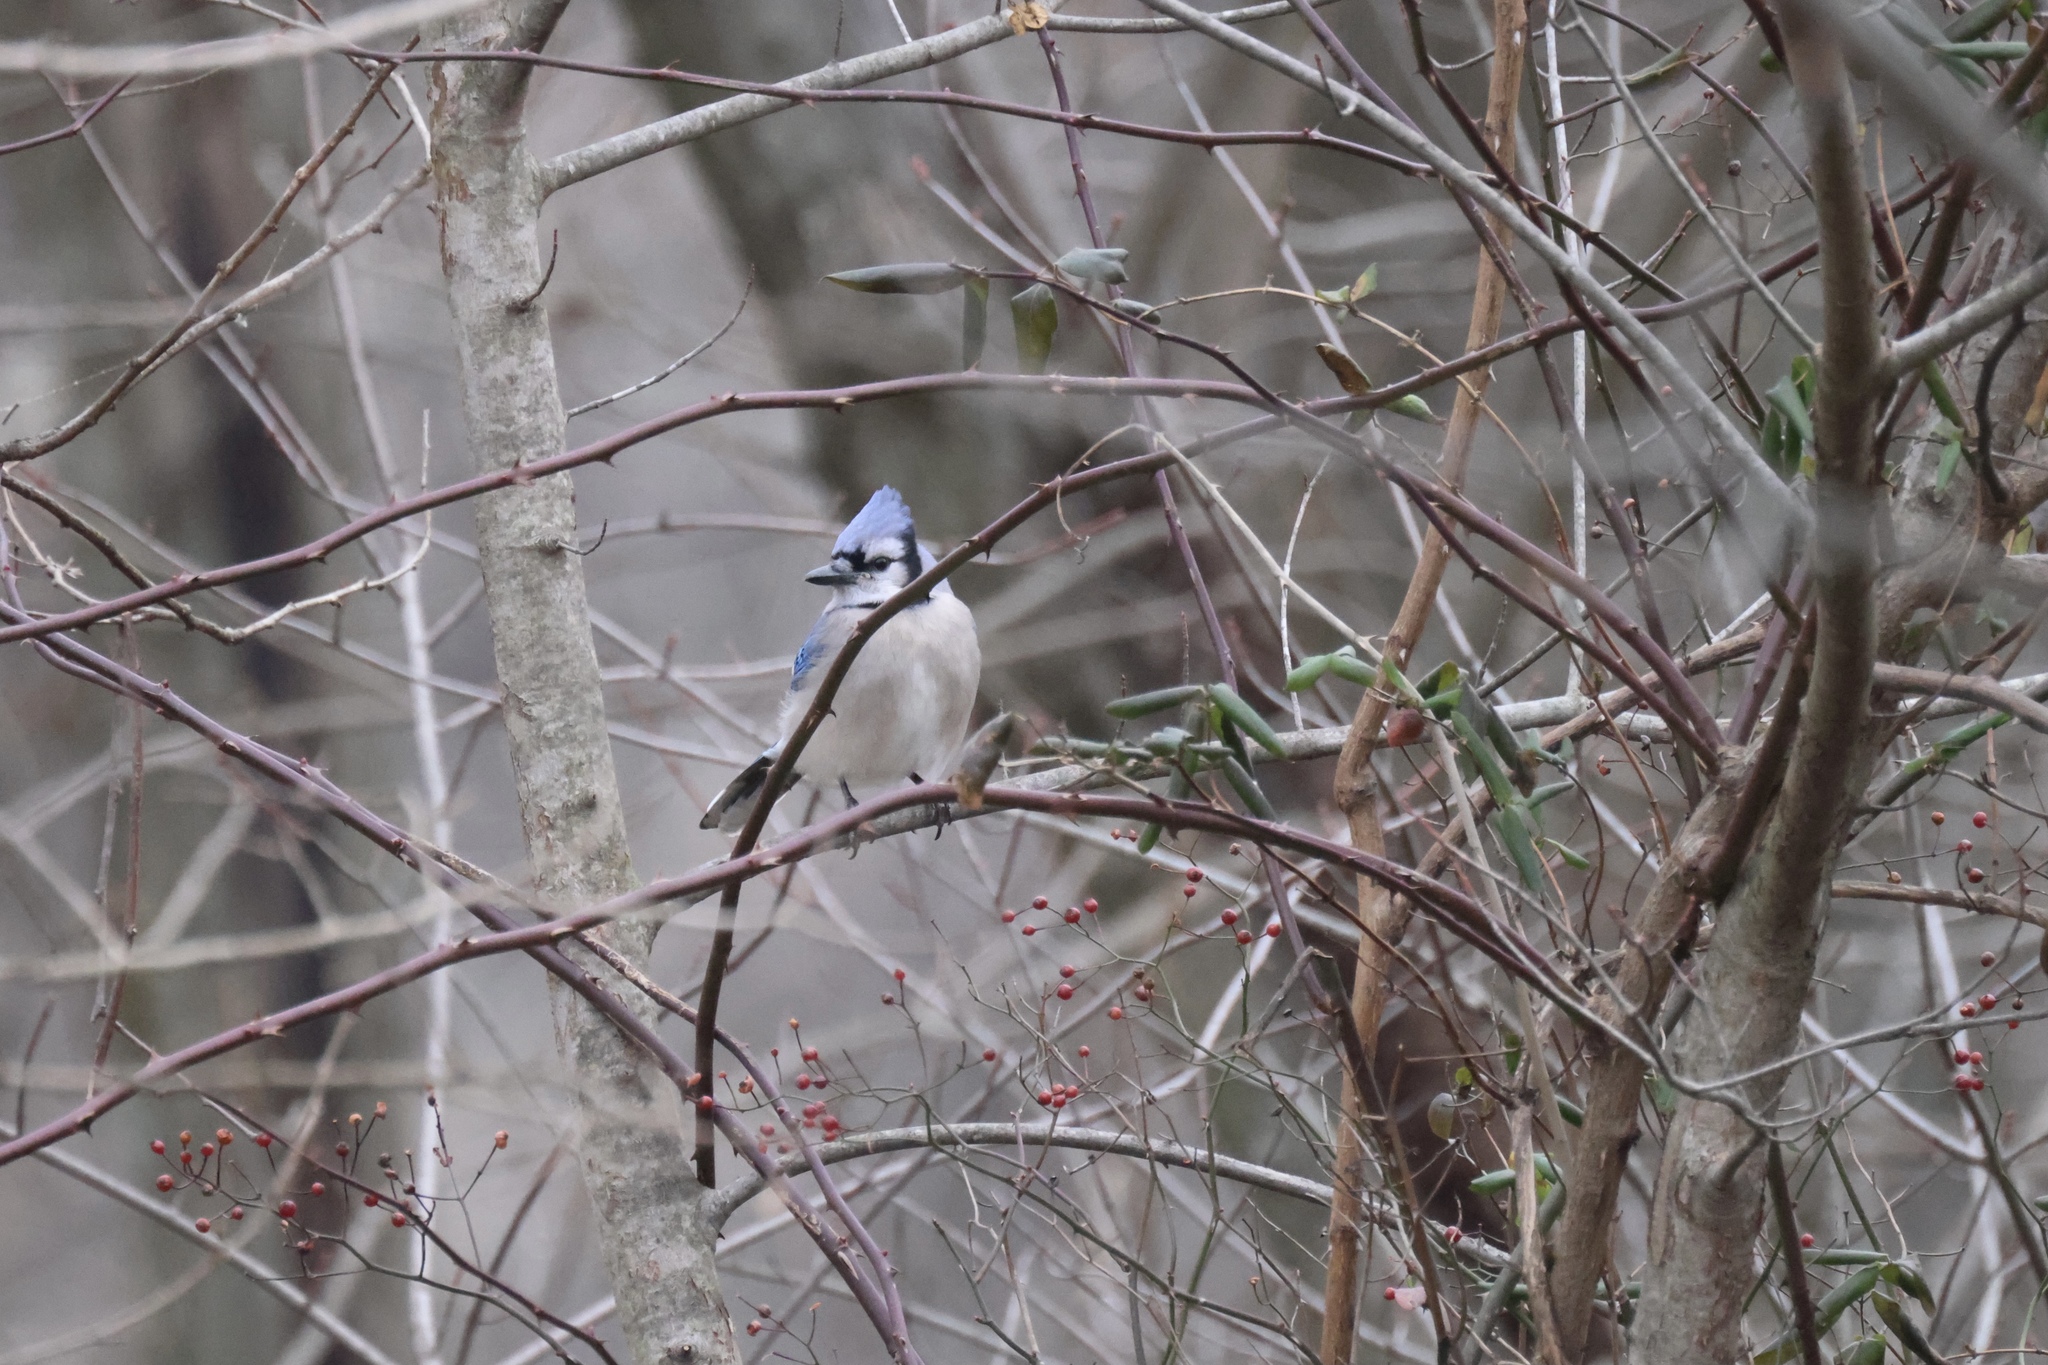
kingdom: Animalia
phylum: Chordata
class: Aves
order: Passeriformes
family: Corvidae
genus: Cyanocitta
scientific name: Cyanocitta cristata
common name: Blue jay
